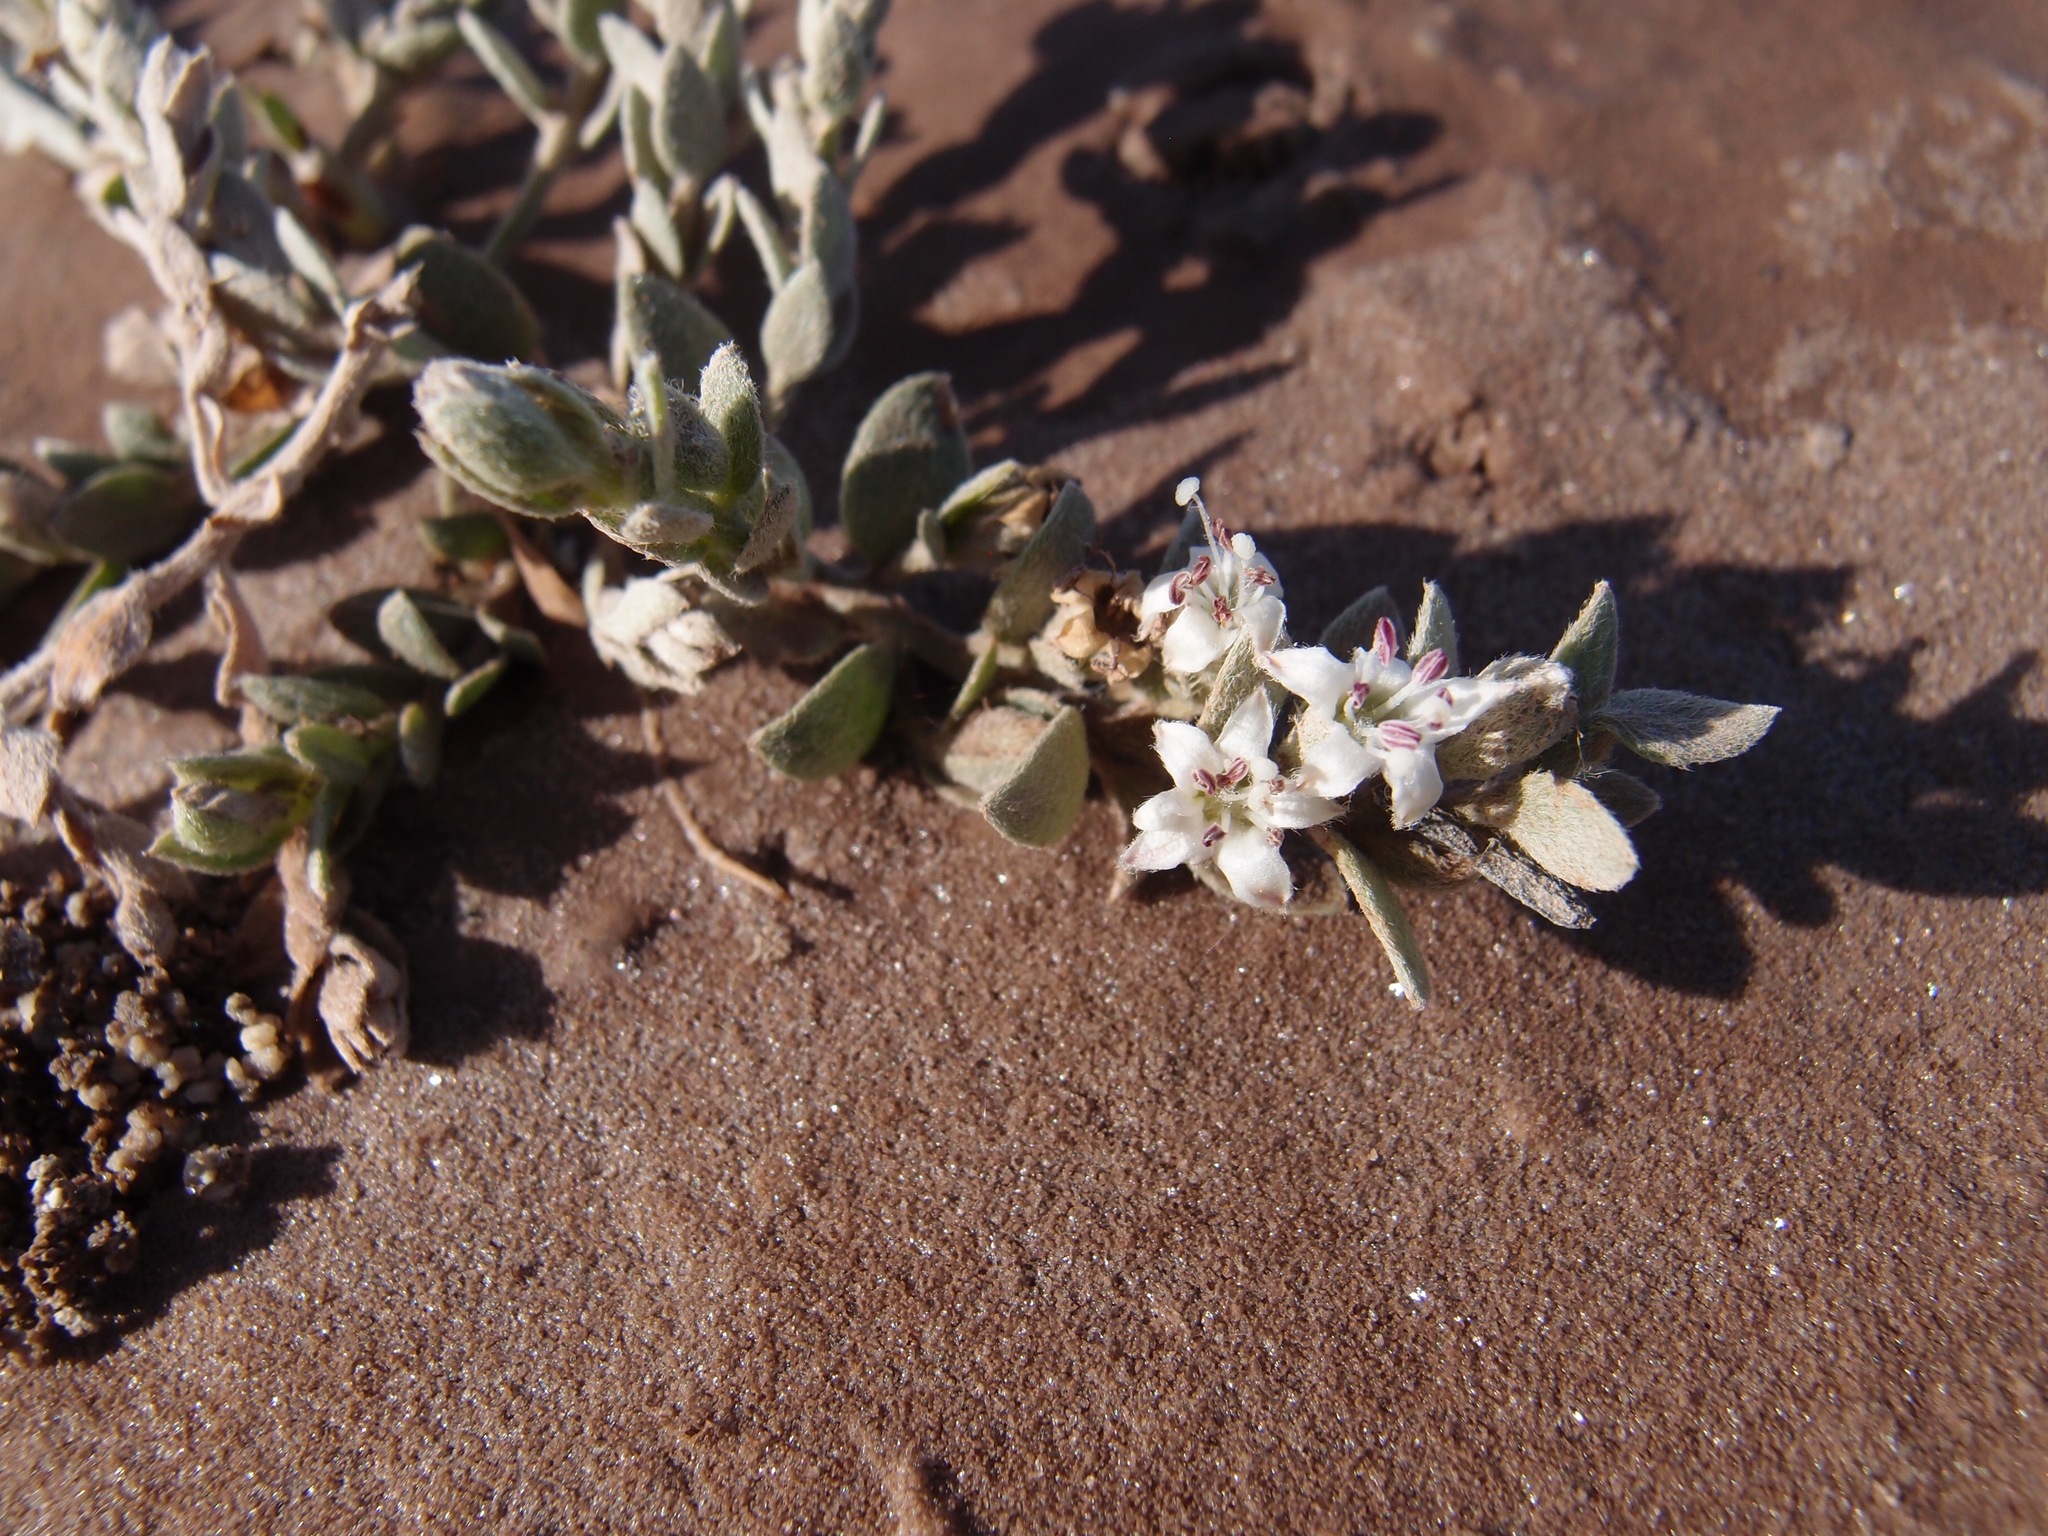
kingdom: Plantae
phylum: Tracheophyta
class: Magnoliopsida
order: Solanales
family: Convolvulaceae
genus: Cressa
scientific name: Cressa truxillensis
